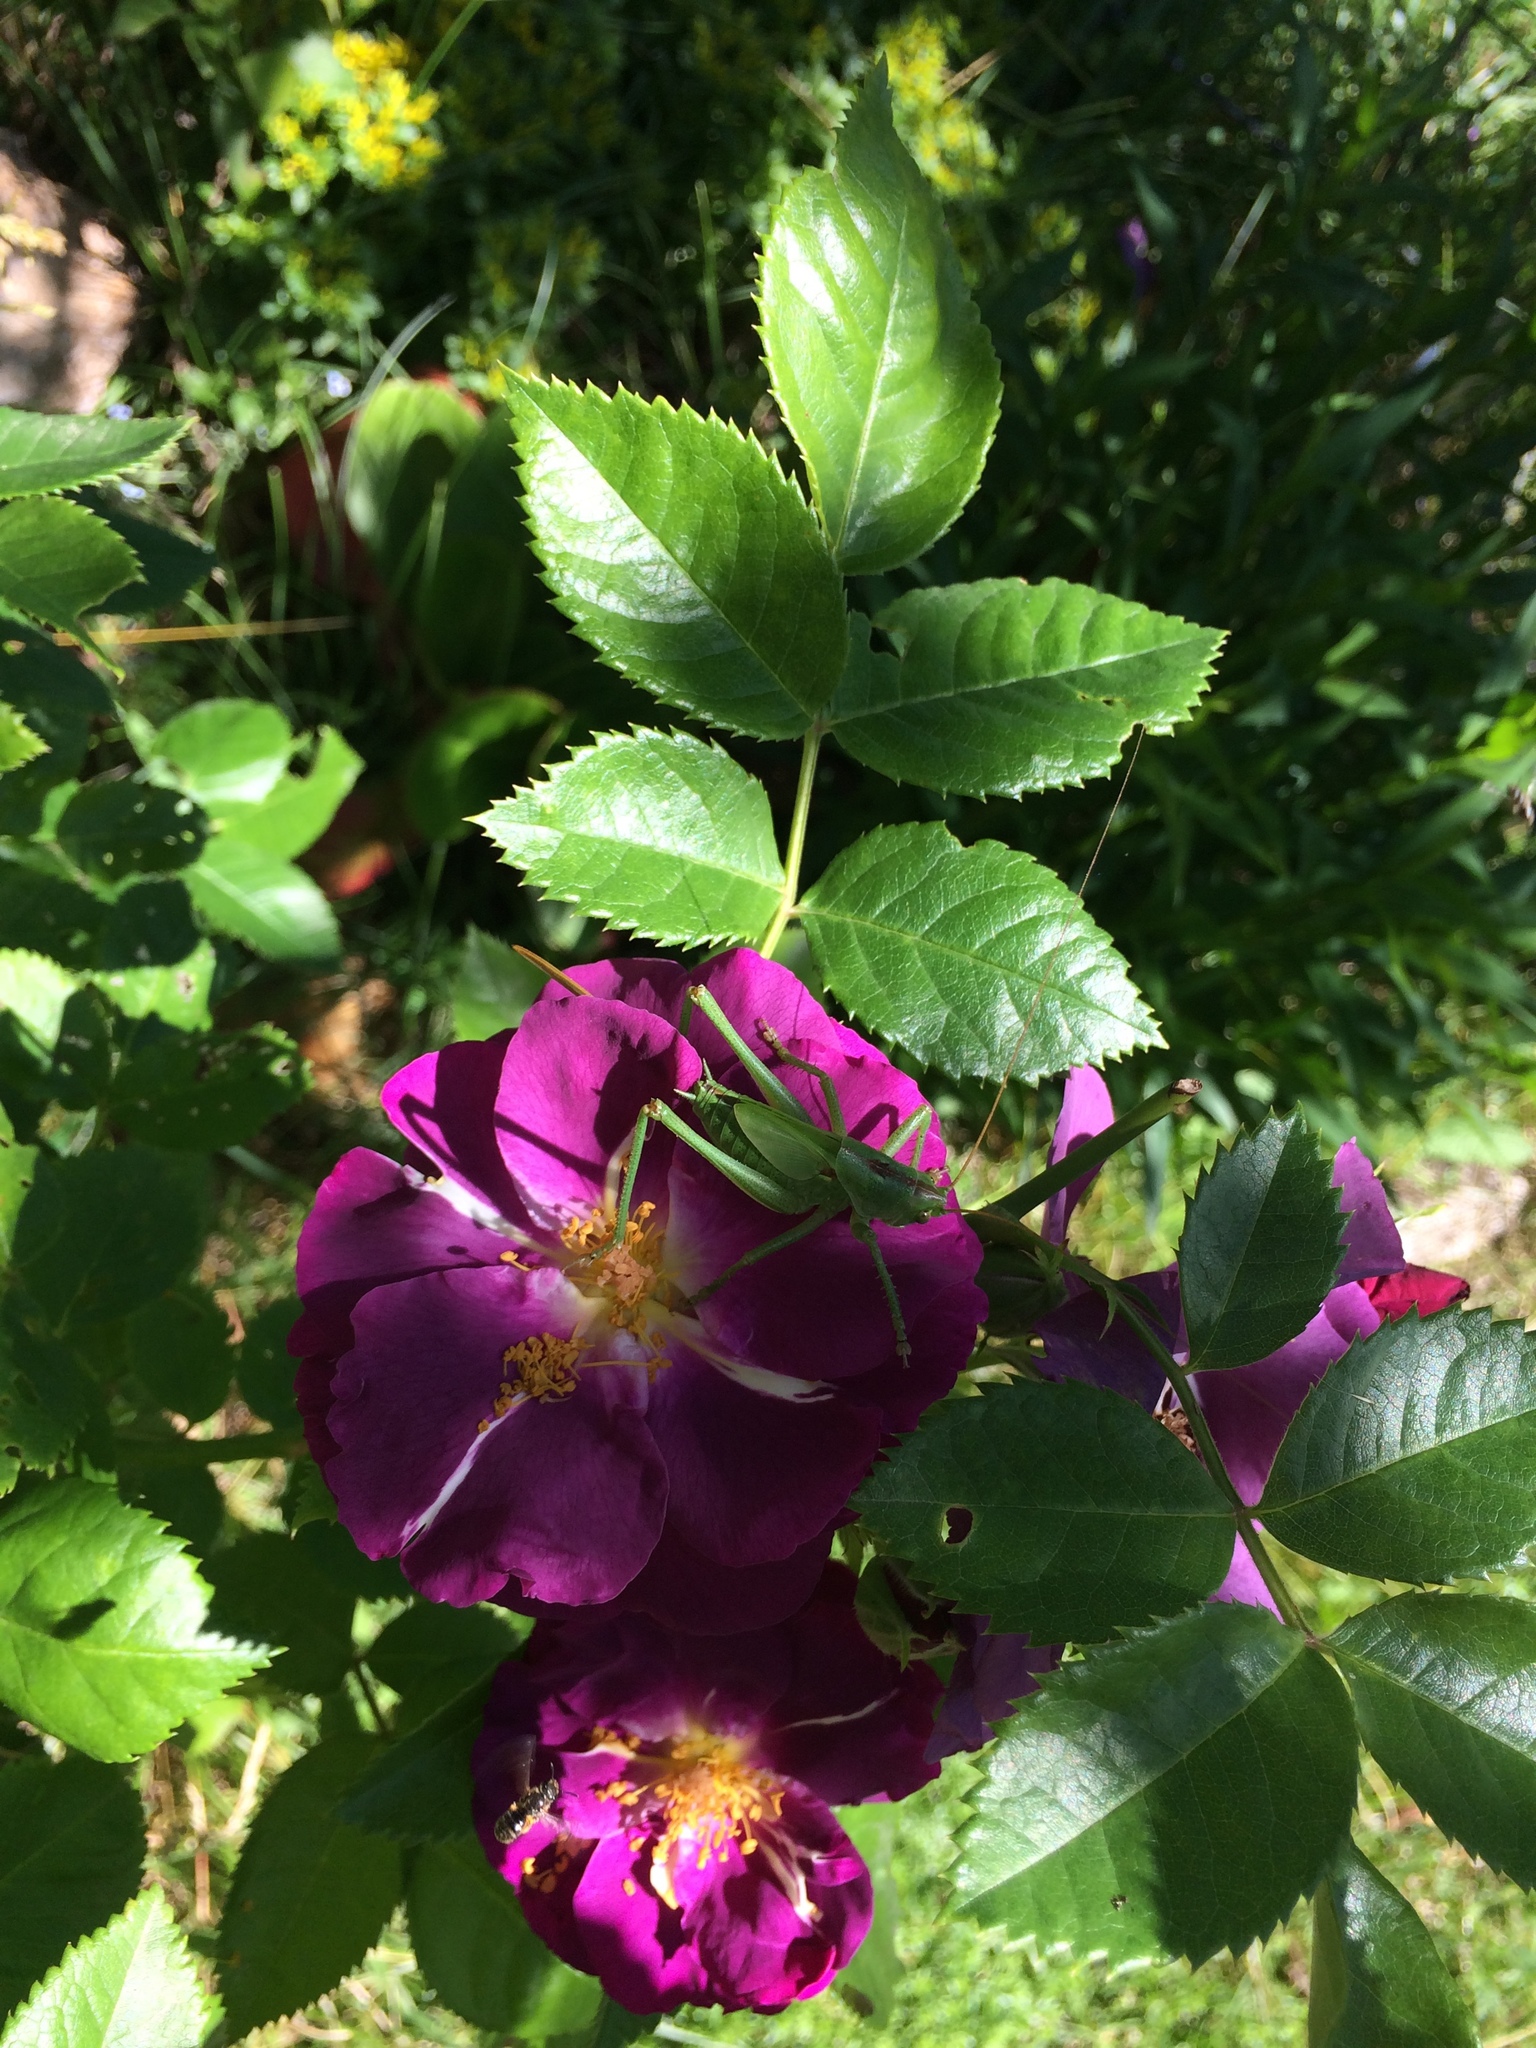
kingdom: Animalia
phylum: Arthropoda
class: Insecta
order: Orthoptera
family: Tettigoniidae
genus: Tettigonia
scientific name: Tettigonia viridissima
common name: Great green bush-cricket
